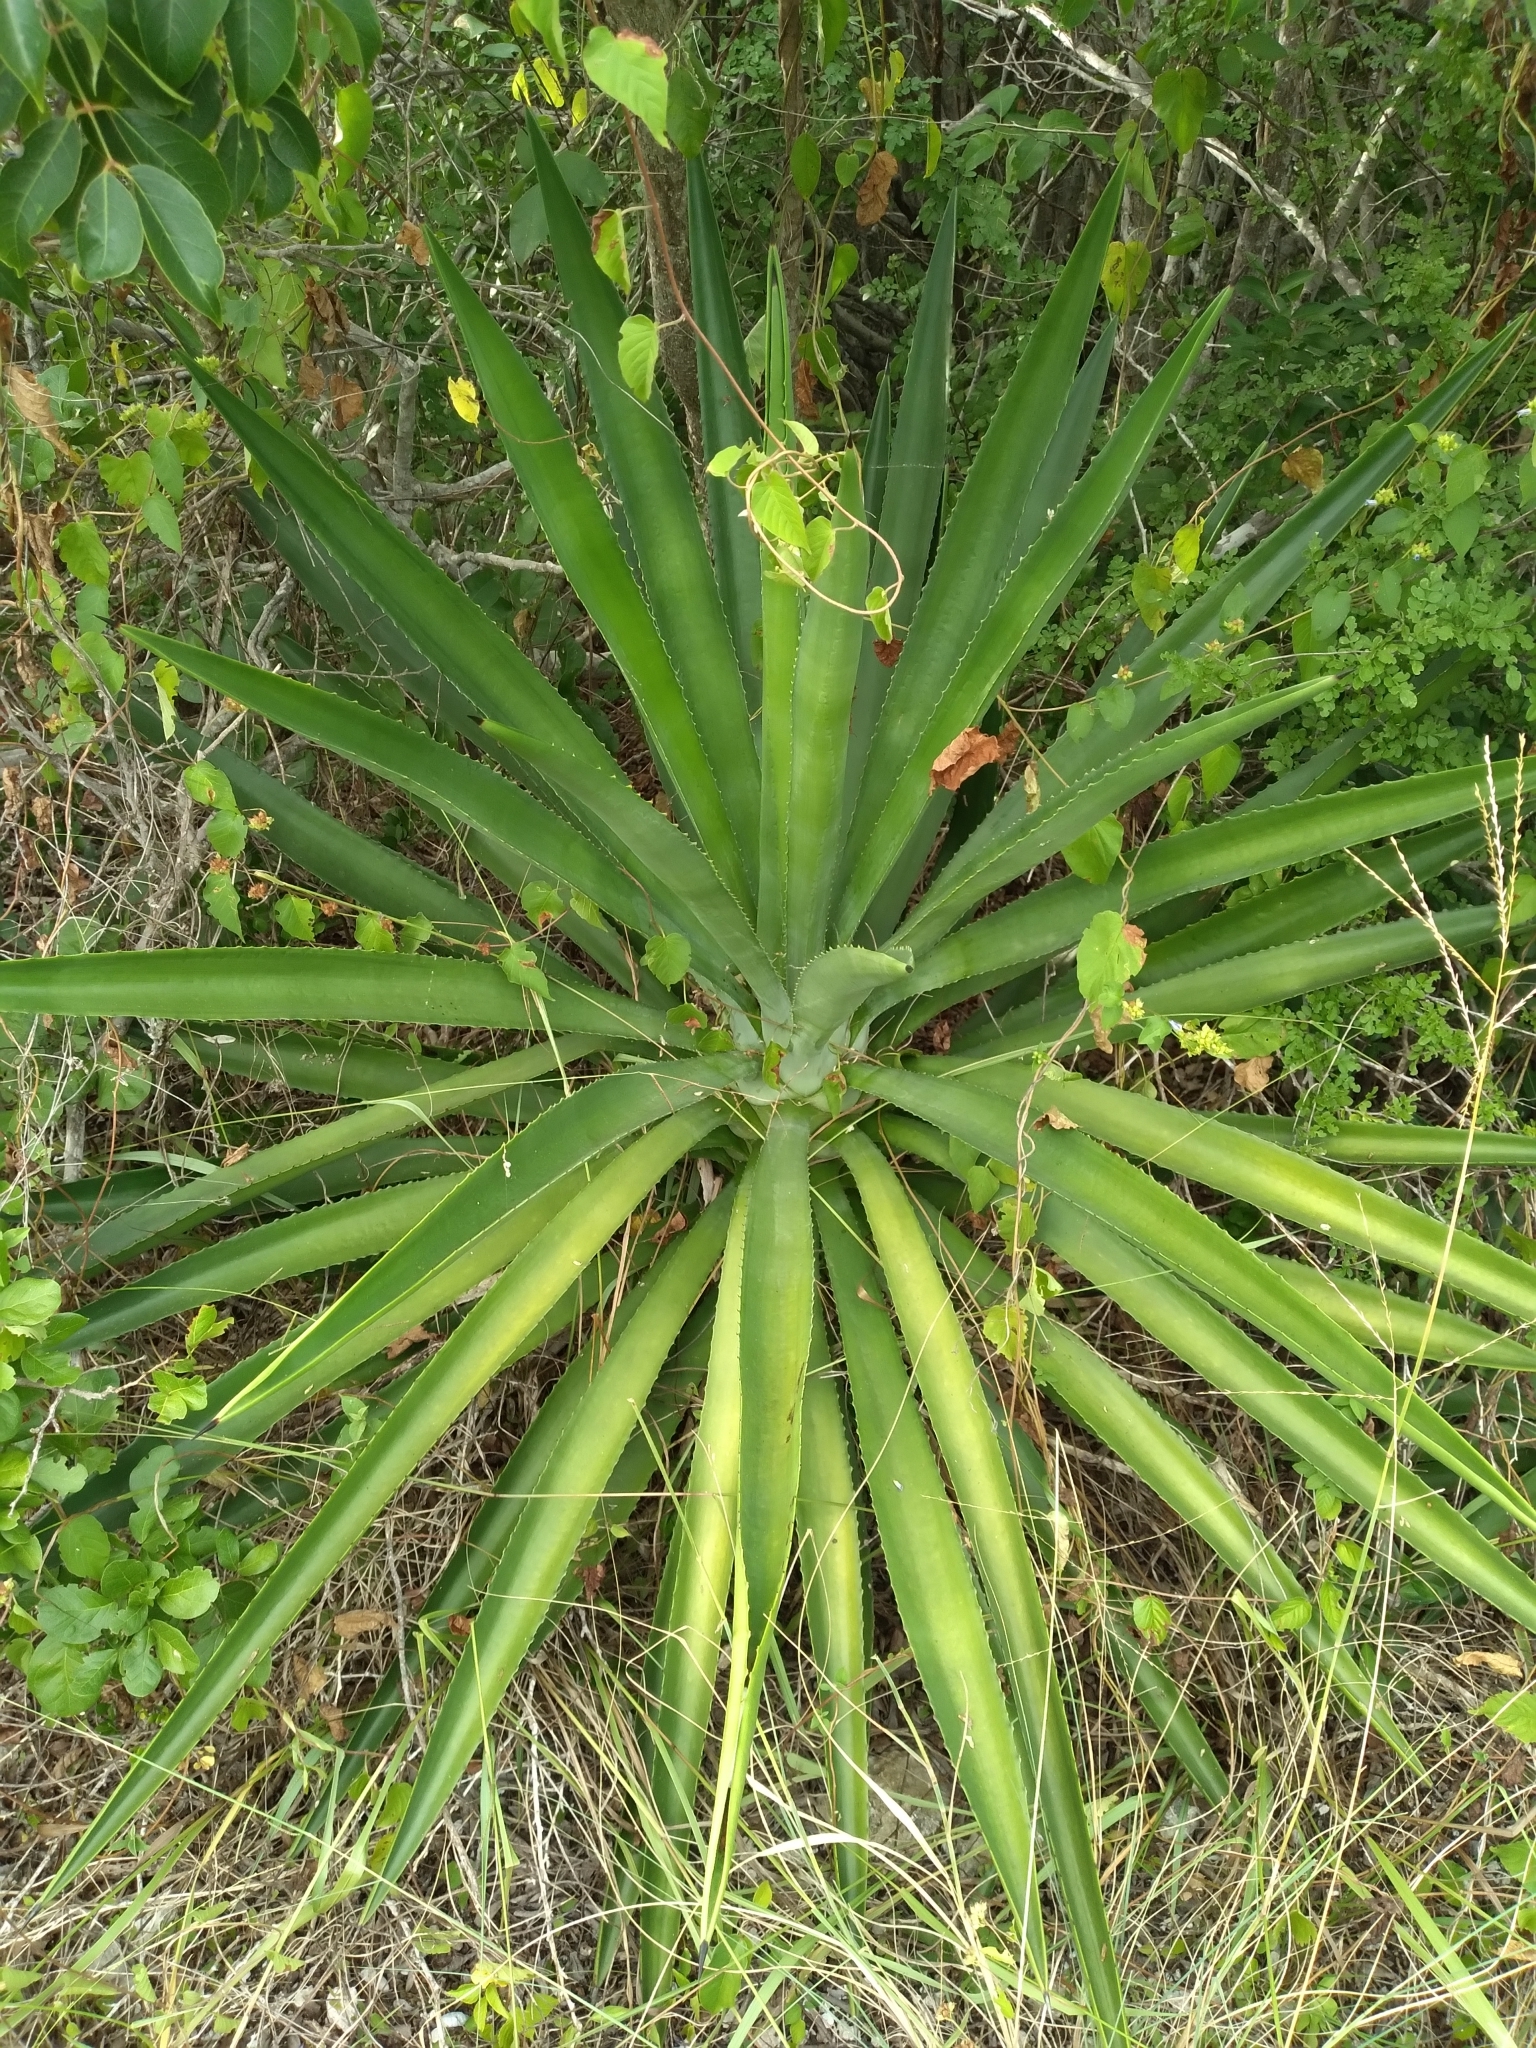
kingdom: Plantae
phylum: Tracheophyta
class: Liliopsida
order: Asparagales
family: Asparagaceae
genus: Agave
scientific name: Agave decipiens
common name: False sisal
